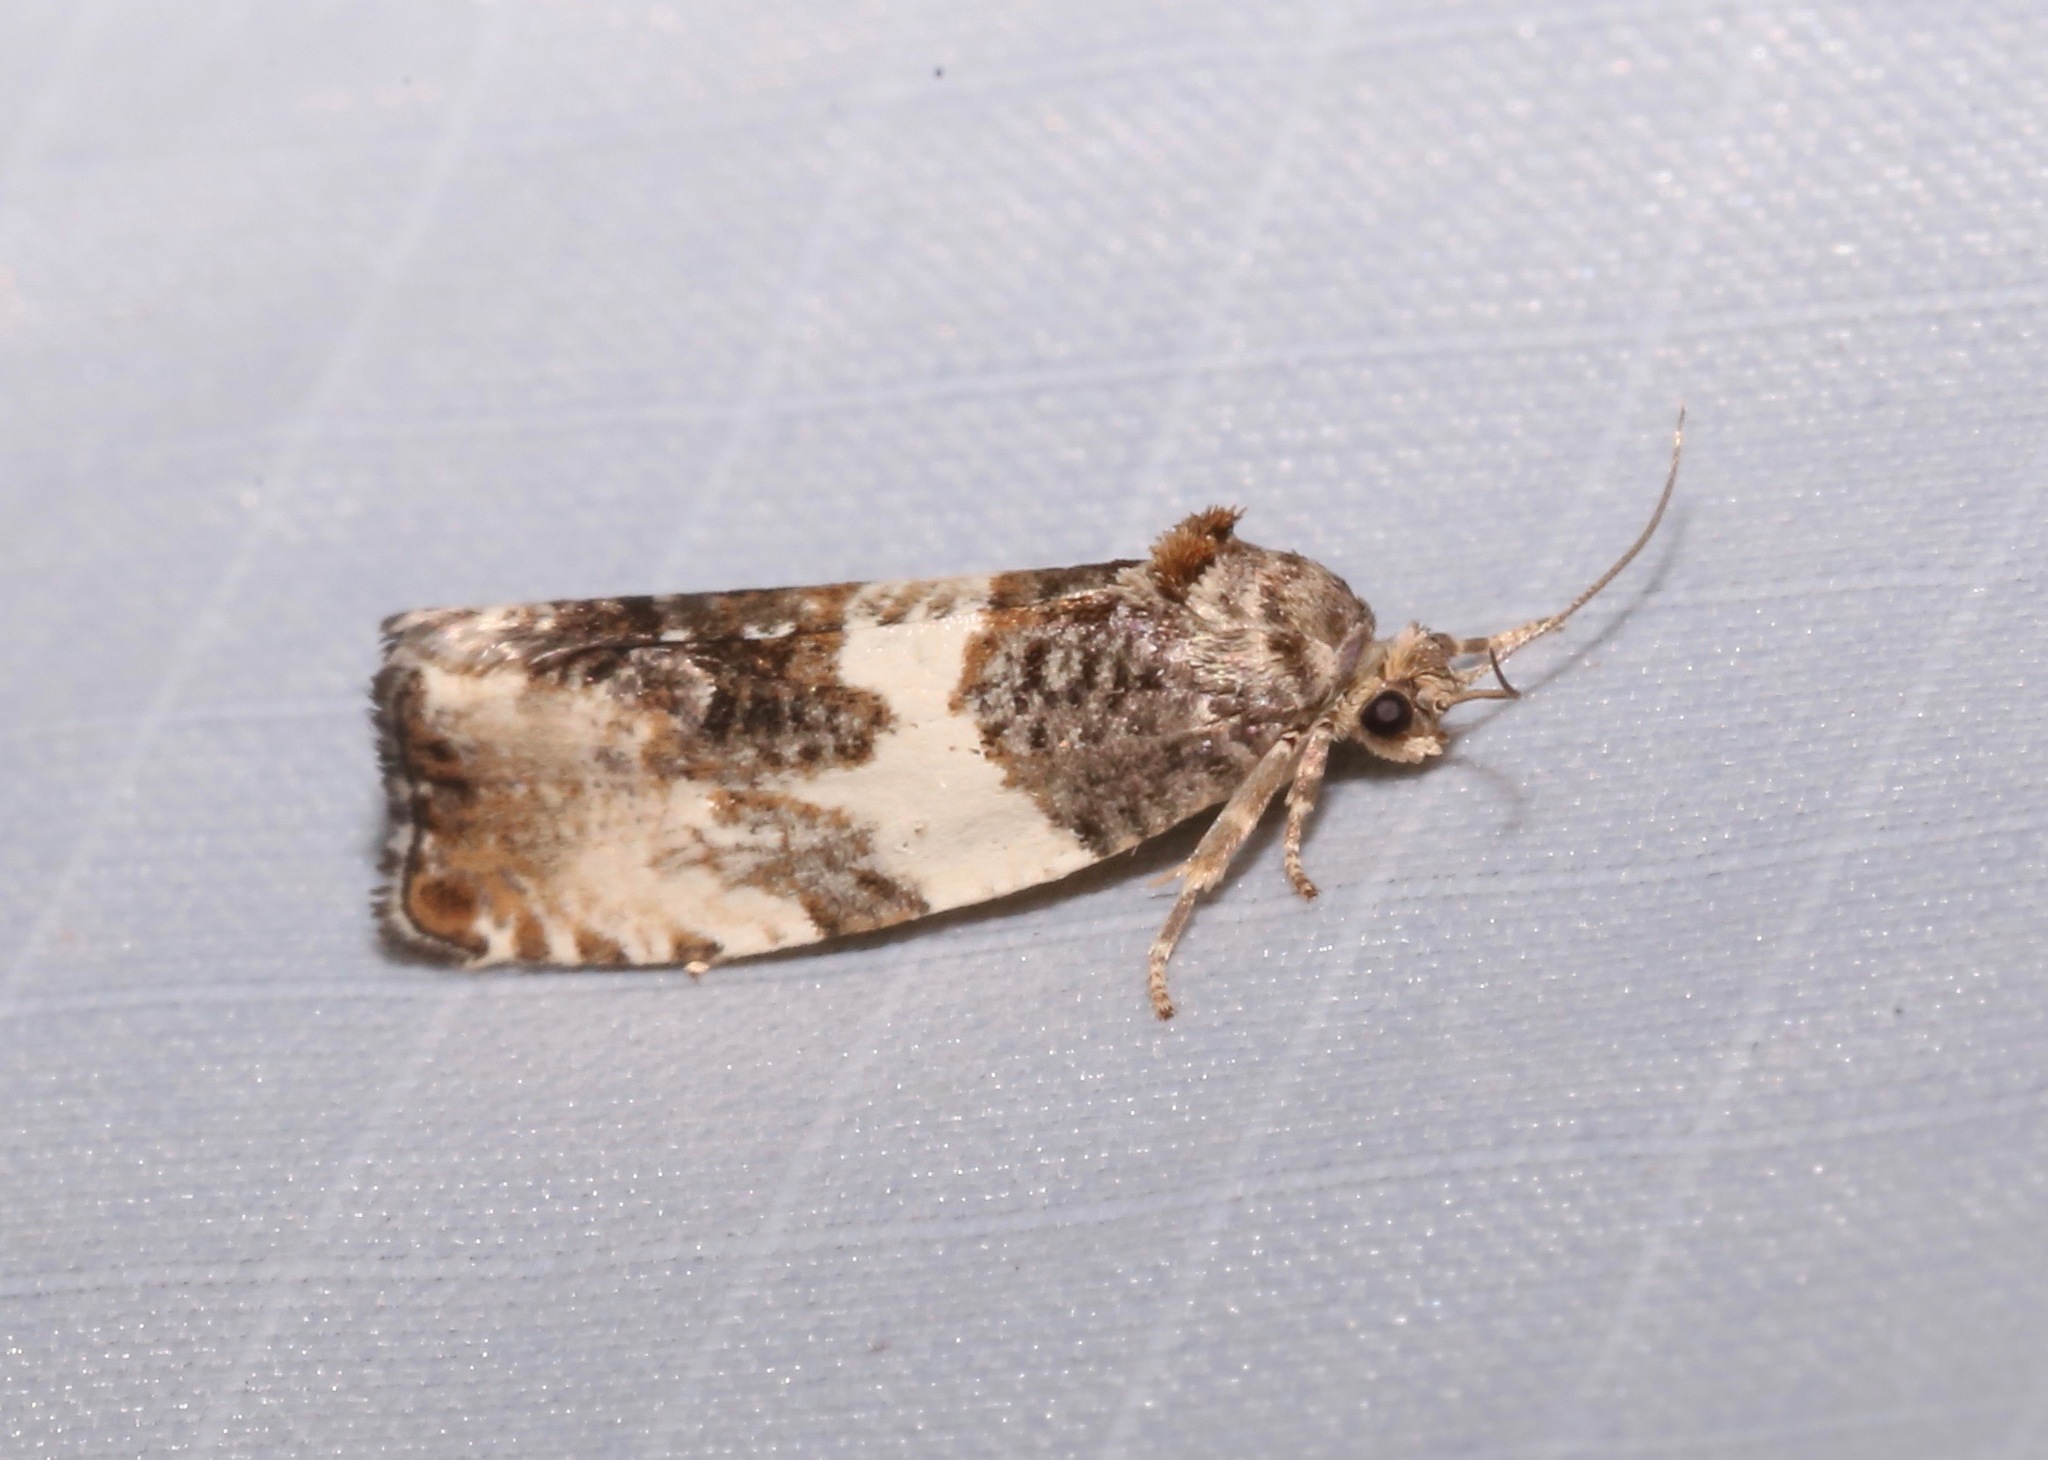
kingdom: Animalia
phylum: Arthropoda
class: Insecta
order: Lepidoptera
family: Tortricidae
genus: Pseudosciaphila
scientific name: Pseudosciaphila duplex
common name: Poplar leafroller moth
